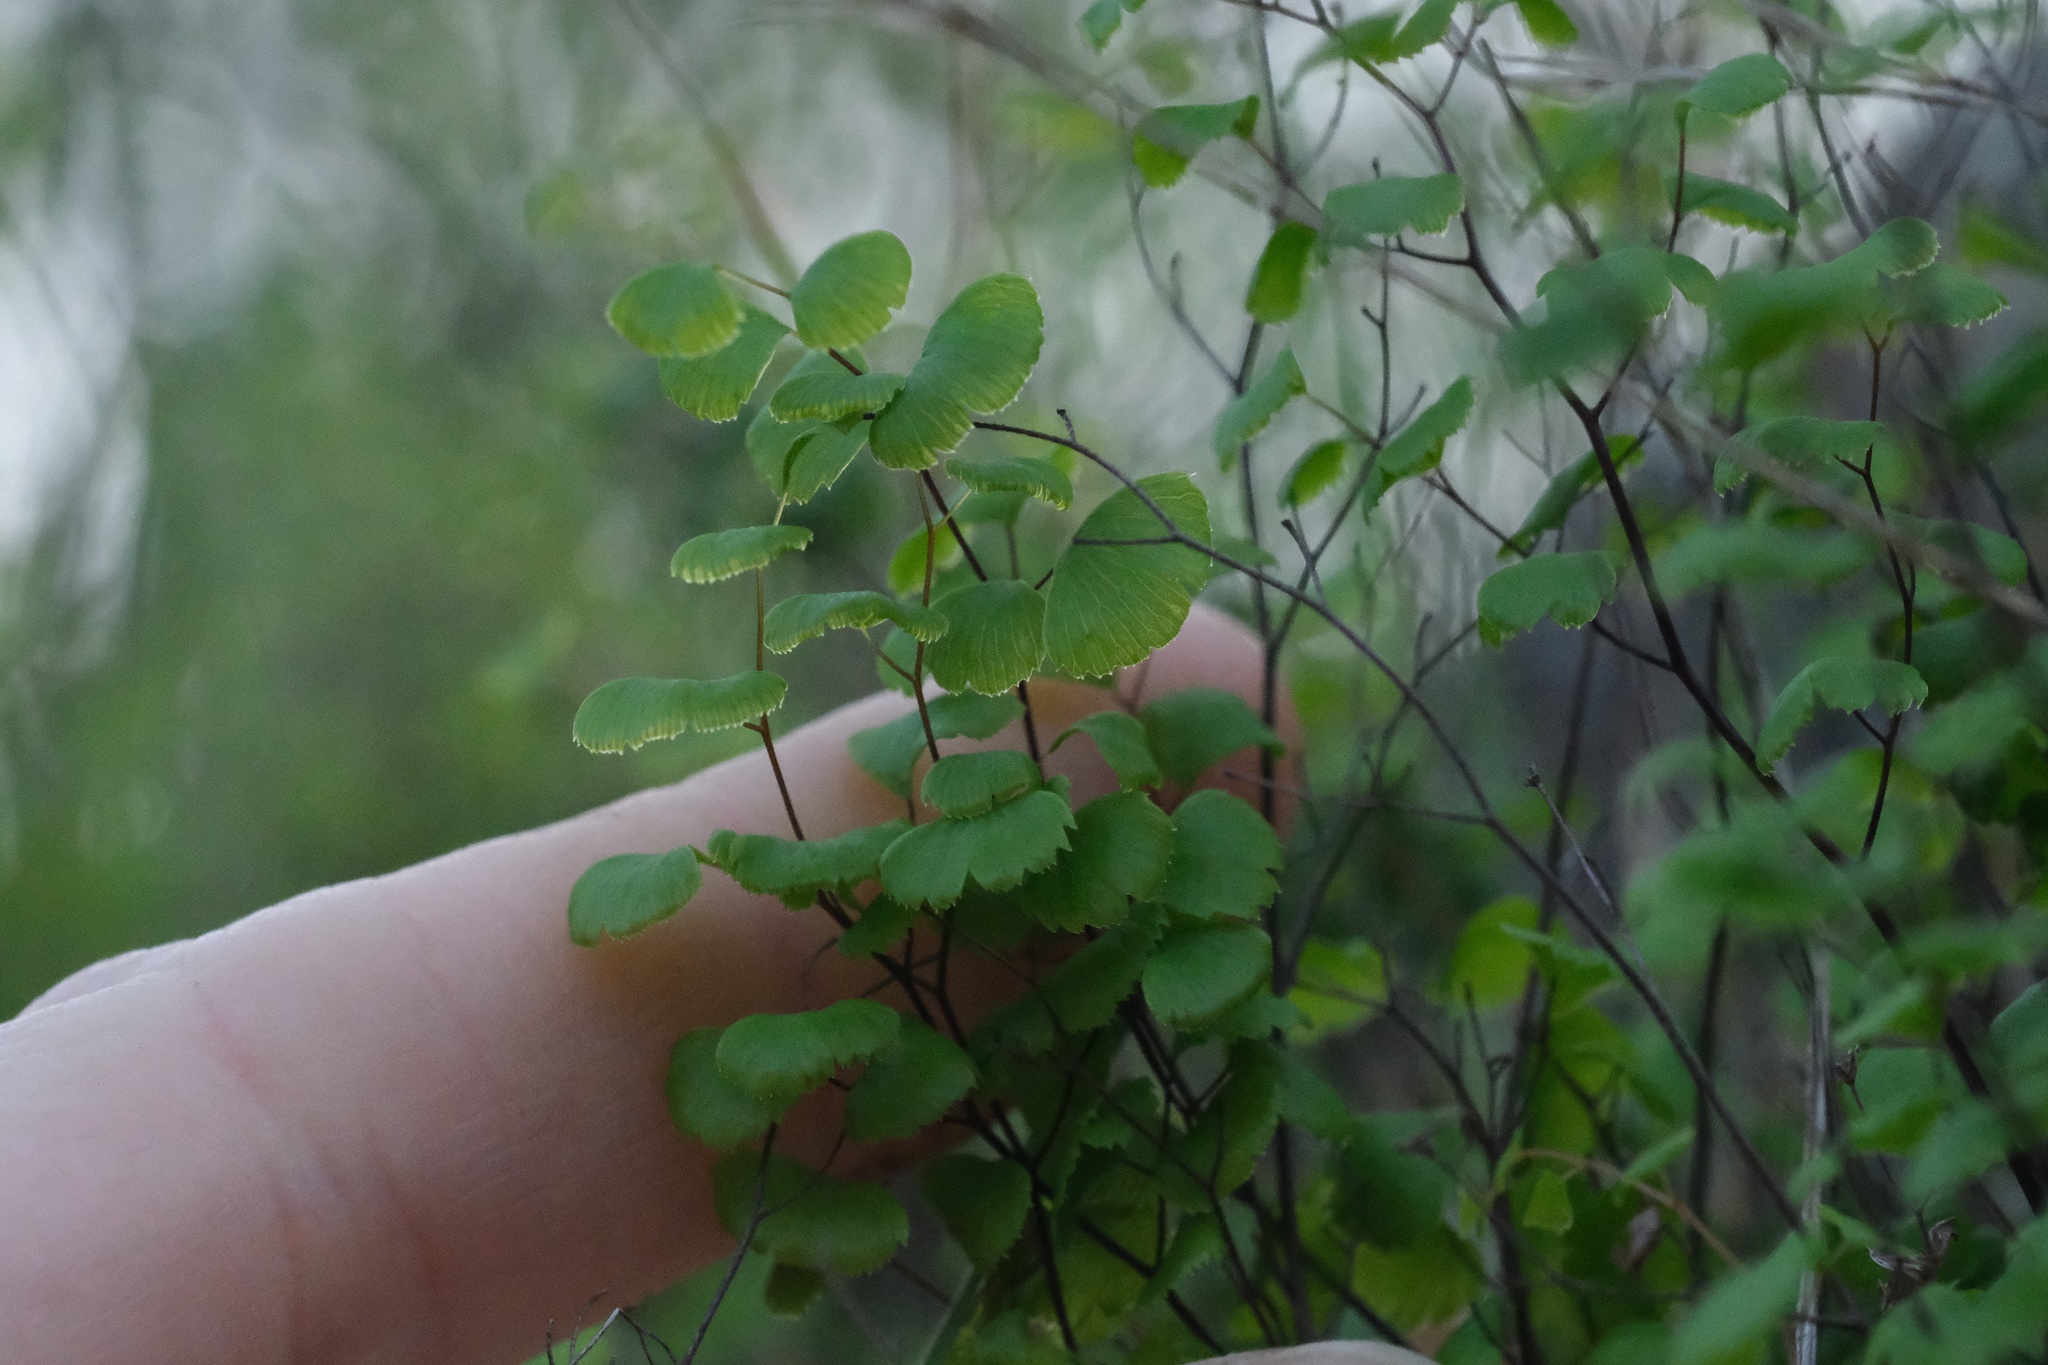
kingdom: Plantae
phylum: Tracheophyta
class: Polypodiopsida
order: Polypodiales
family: Pteridaceae
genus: Adiantum
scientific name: Adiantum jordanii
